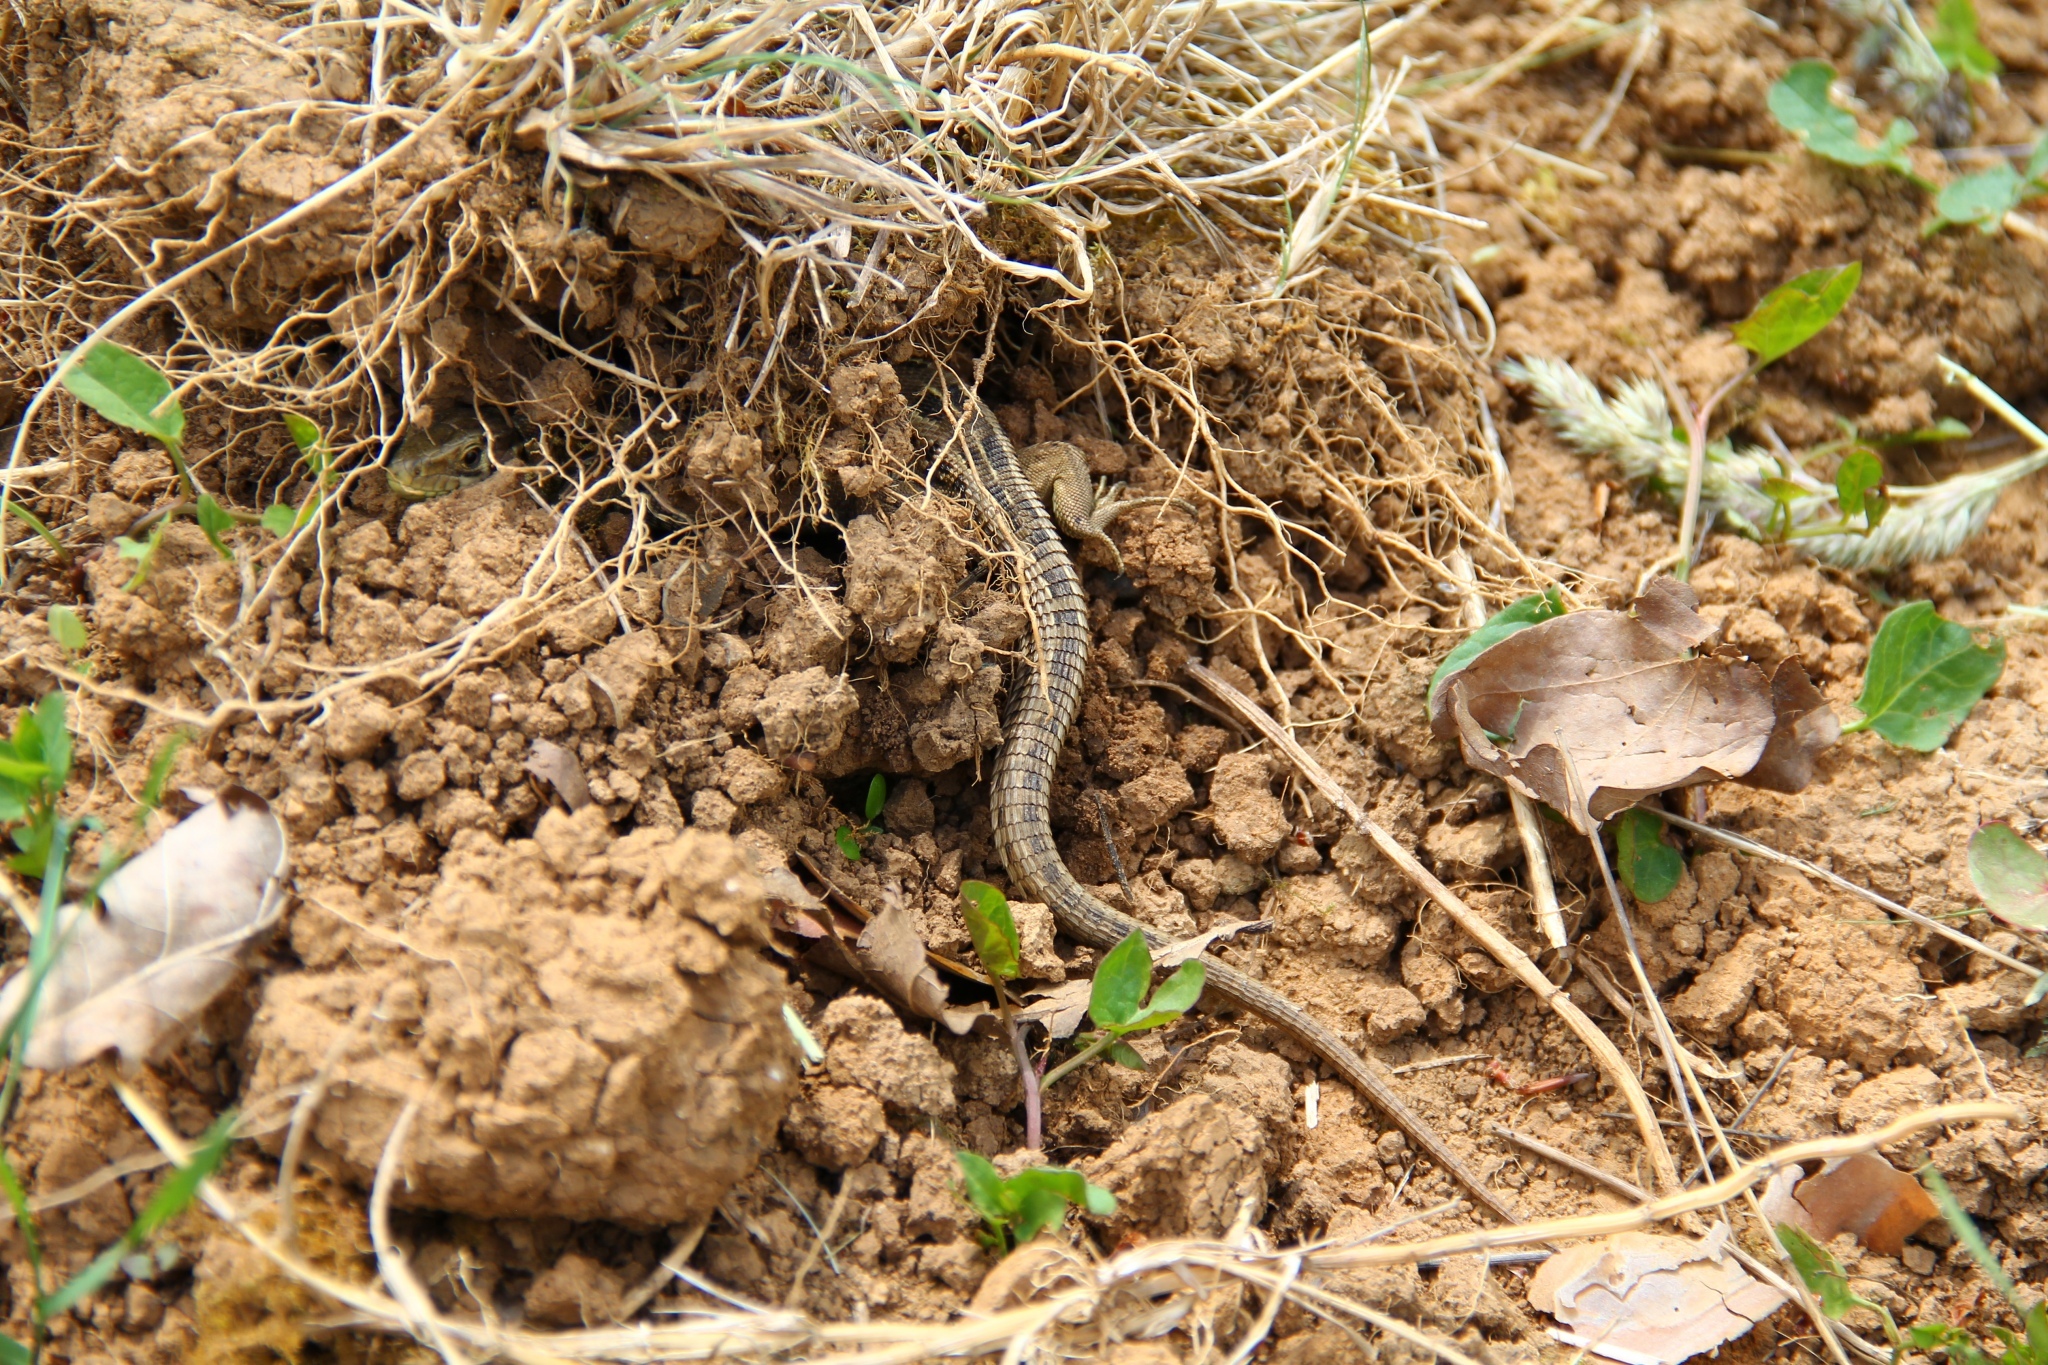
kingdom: Animalia
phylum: Chordata
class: Squamata
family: Lacertidae
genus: Lacerta
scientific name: Lacerta agilis
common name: Sand lizard
